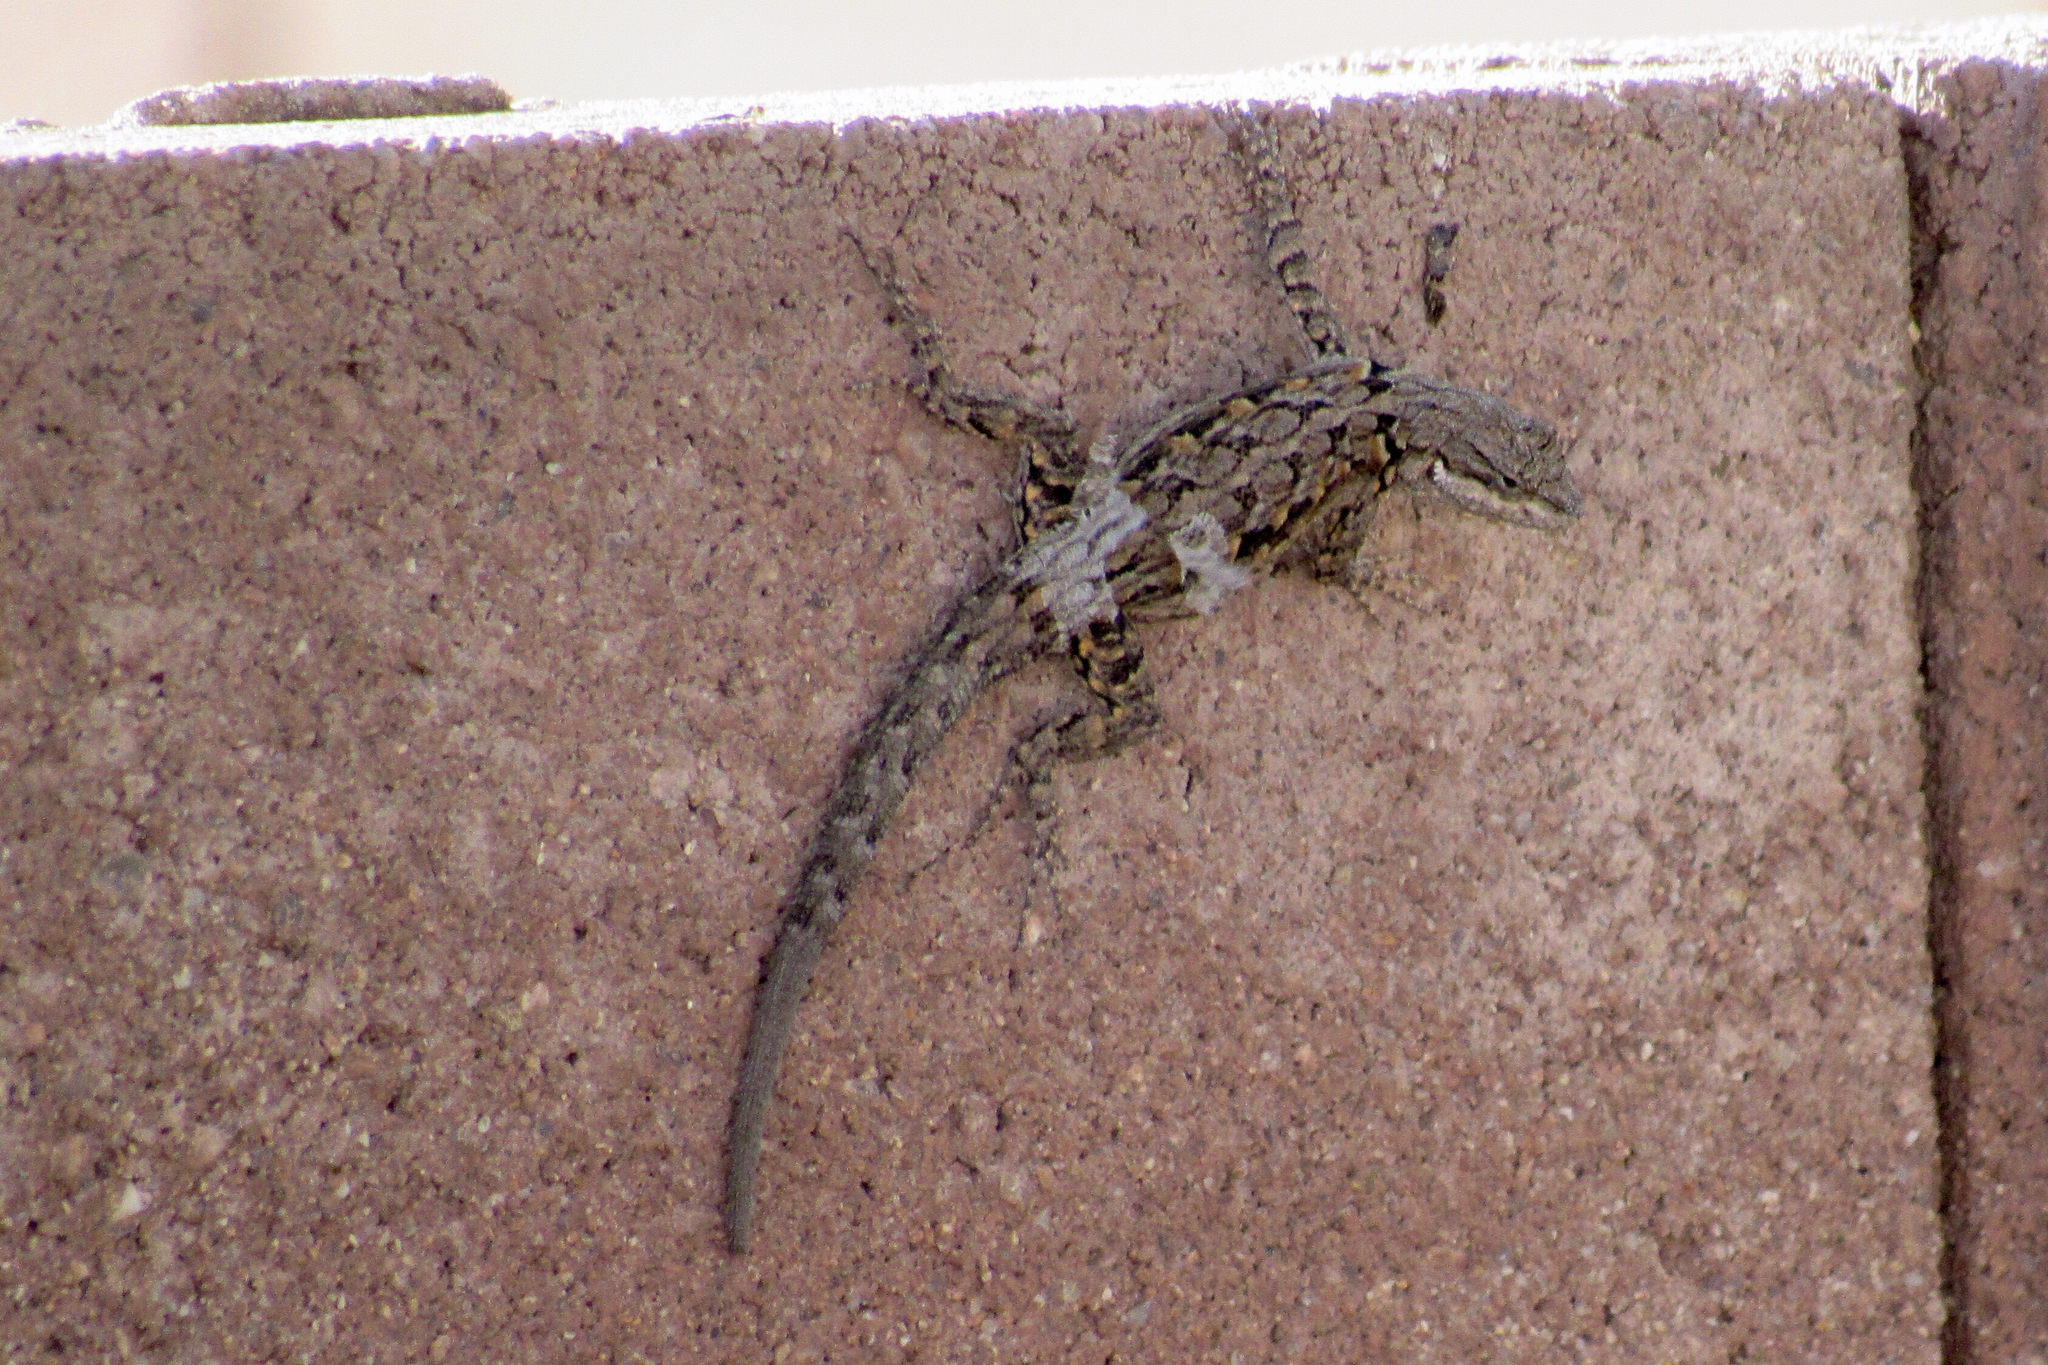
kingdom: Animalia
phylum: Chordata
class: Squamata
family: Phrynosomatidae
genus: Urosaurus
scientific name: Urosaurus ornatus
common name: Ornate tree lizard
